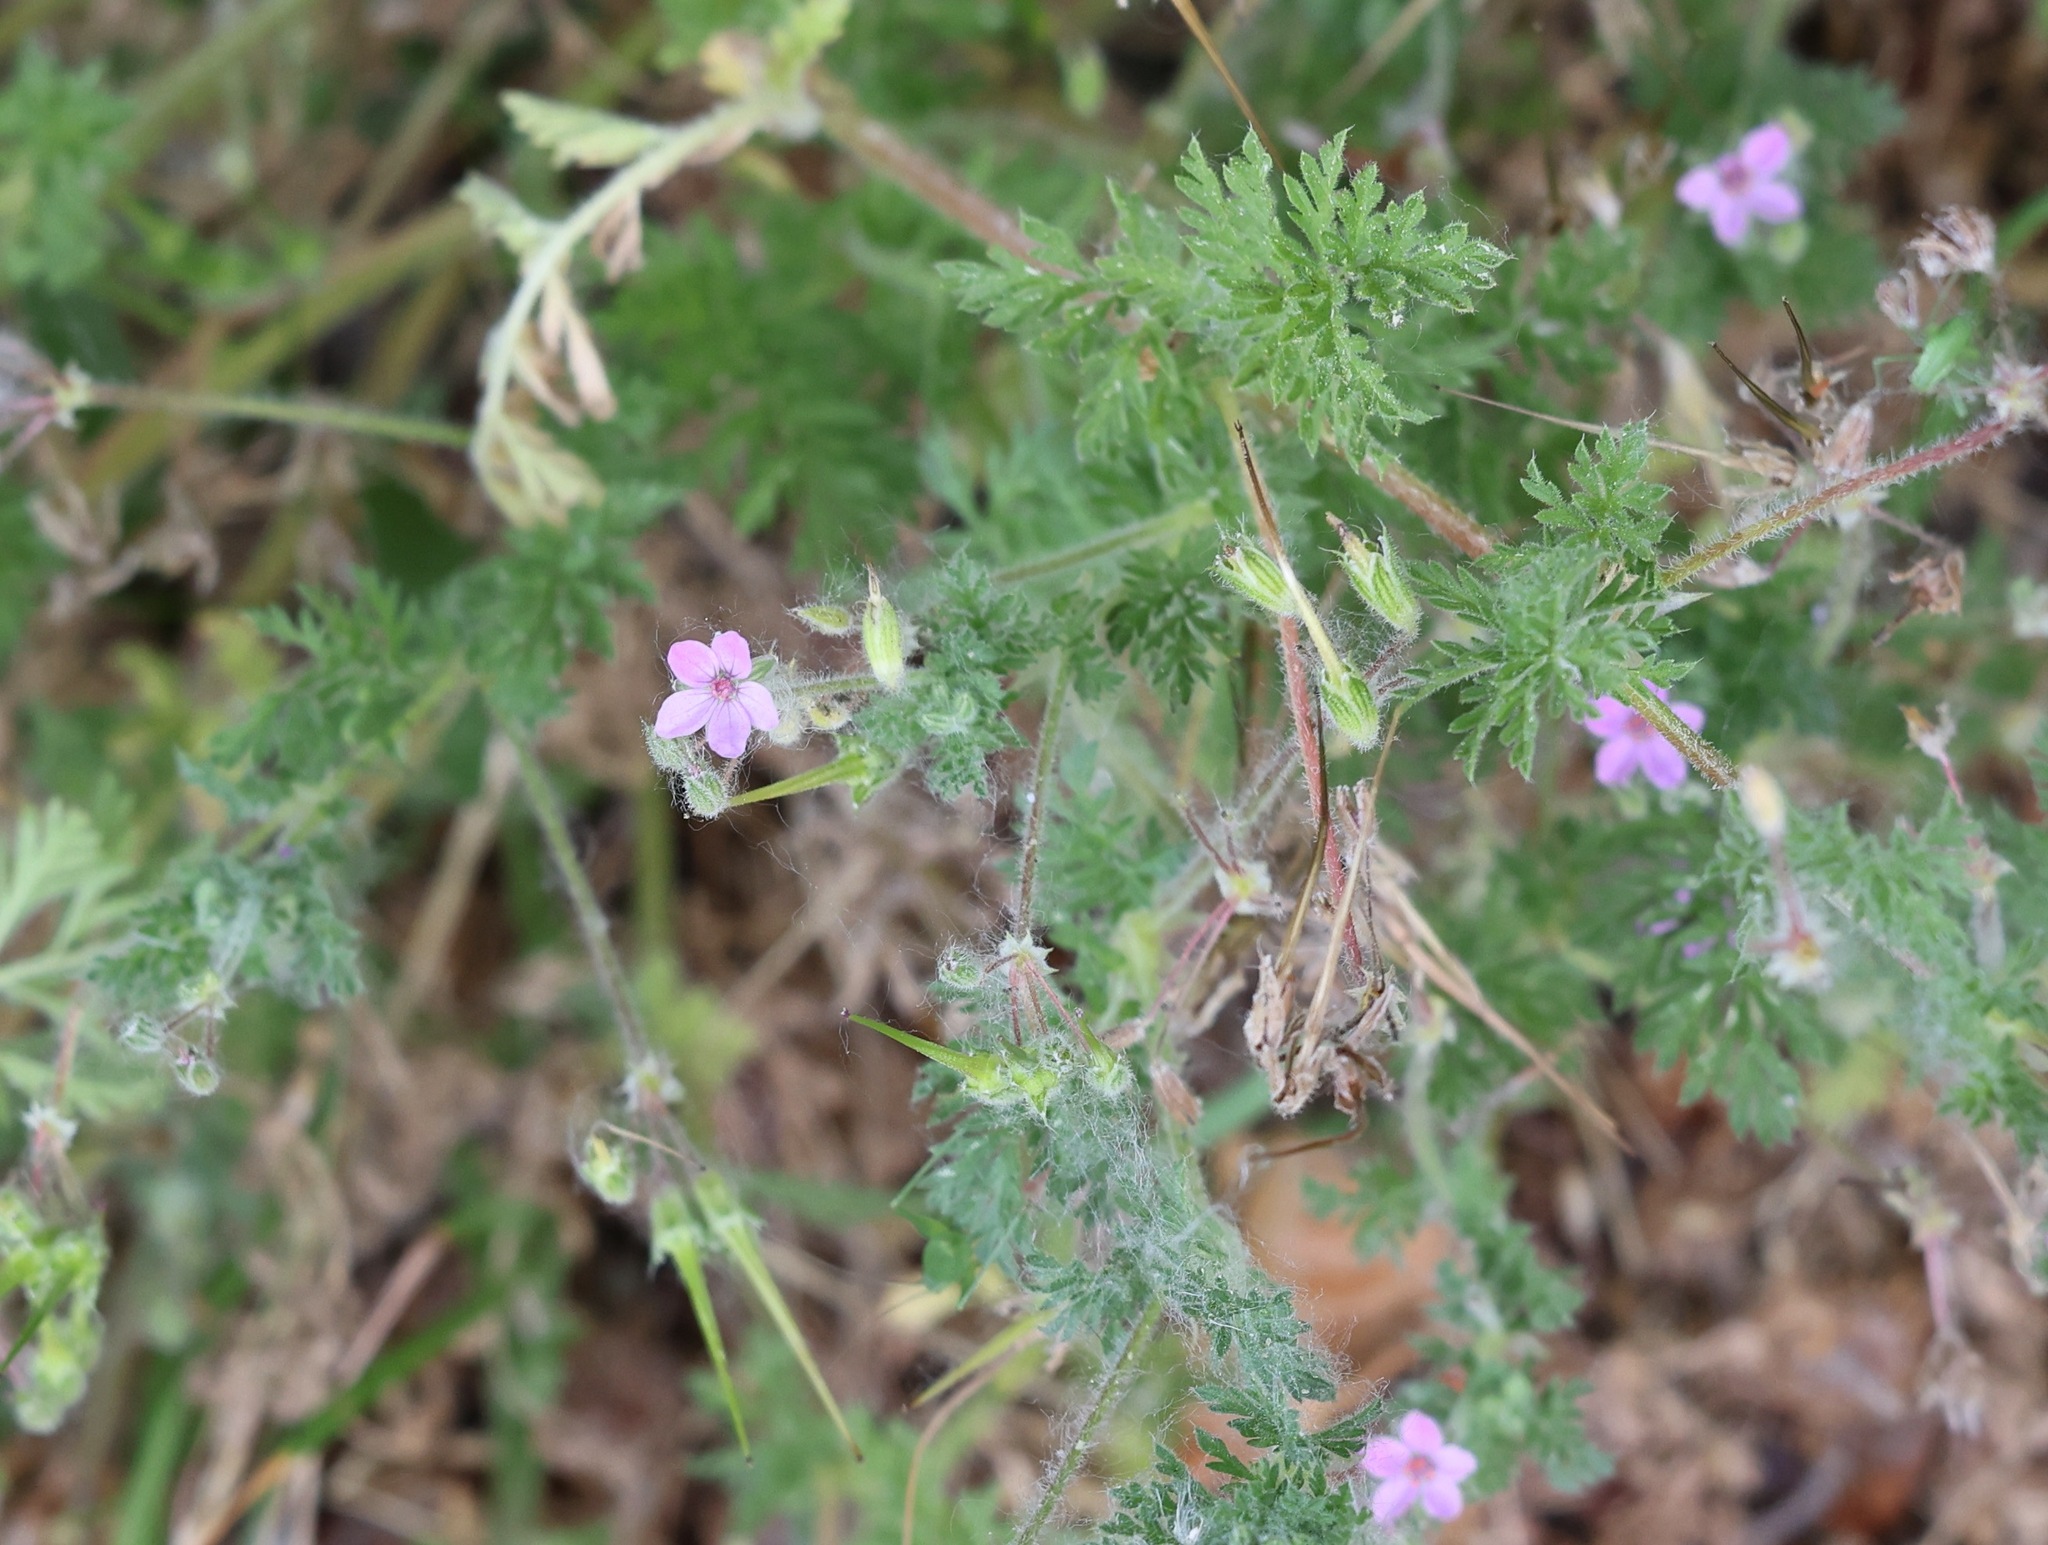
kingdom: Plantae
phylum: Tracheophyta
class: Magnoliopsida
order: Geraniales
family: Geraniaceae
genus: Erodium
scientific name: Erodium cicutarium
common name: Common stork's-bill
